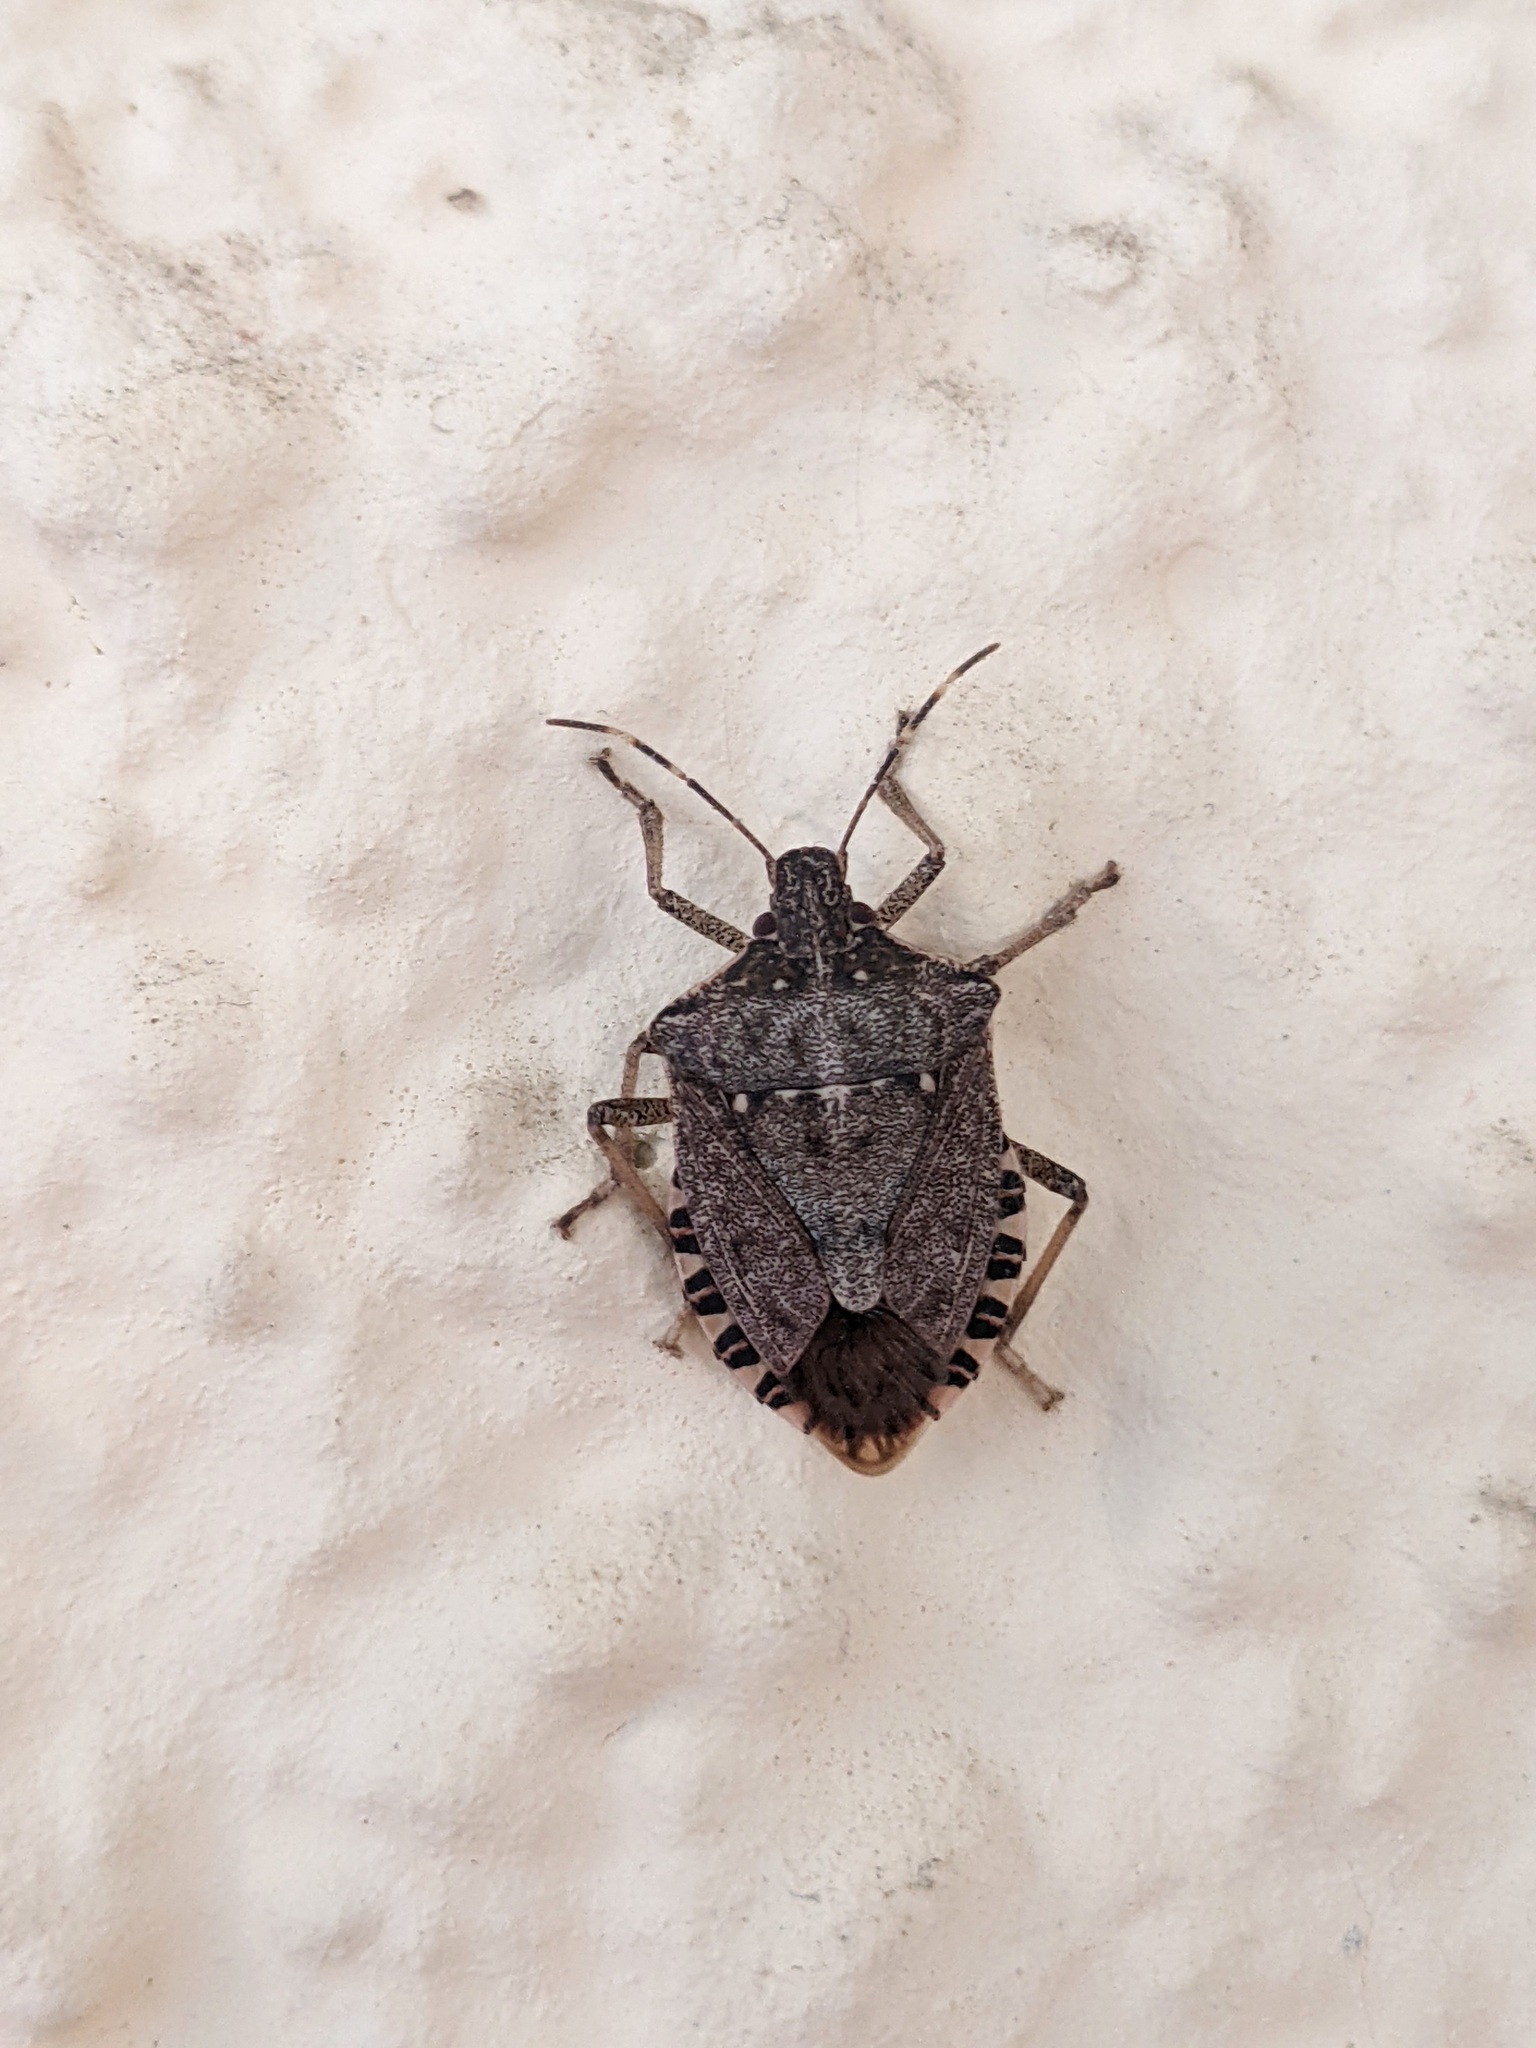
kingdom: Animalia
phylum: Arthropoda
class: Insecta
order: Hemiptera
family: Pentatomidae
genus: Halyomorpha
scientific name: Halyomorpha halys
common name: Brown marmorated stink bug
